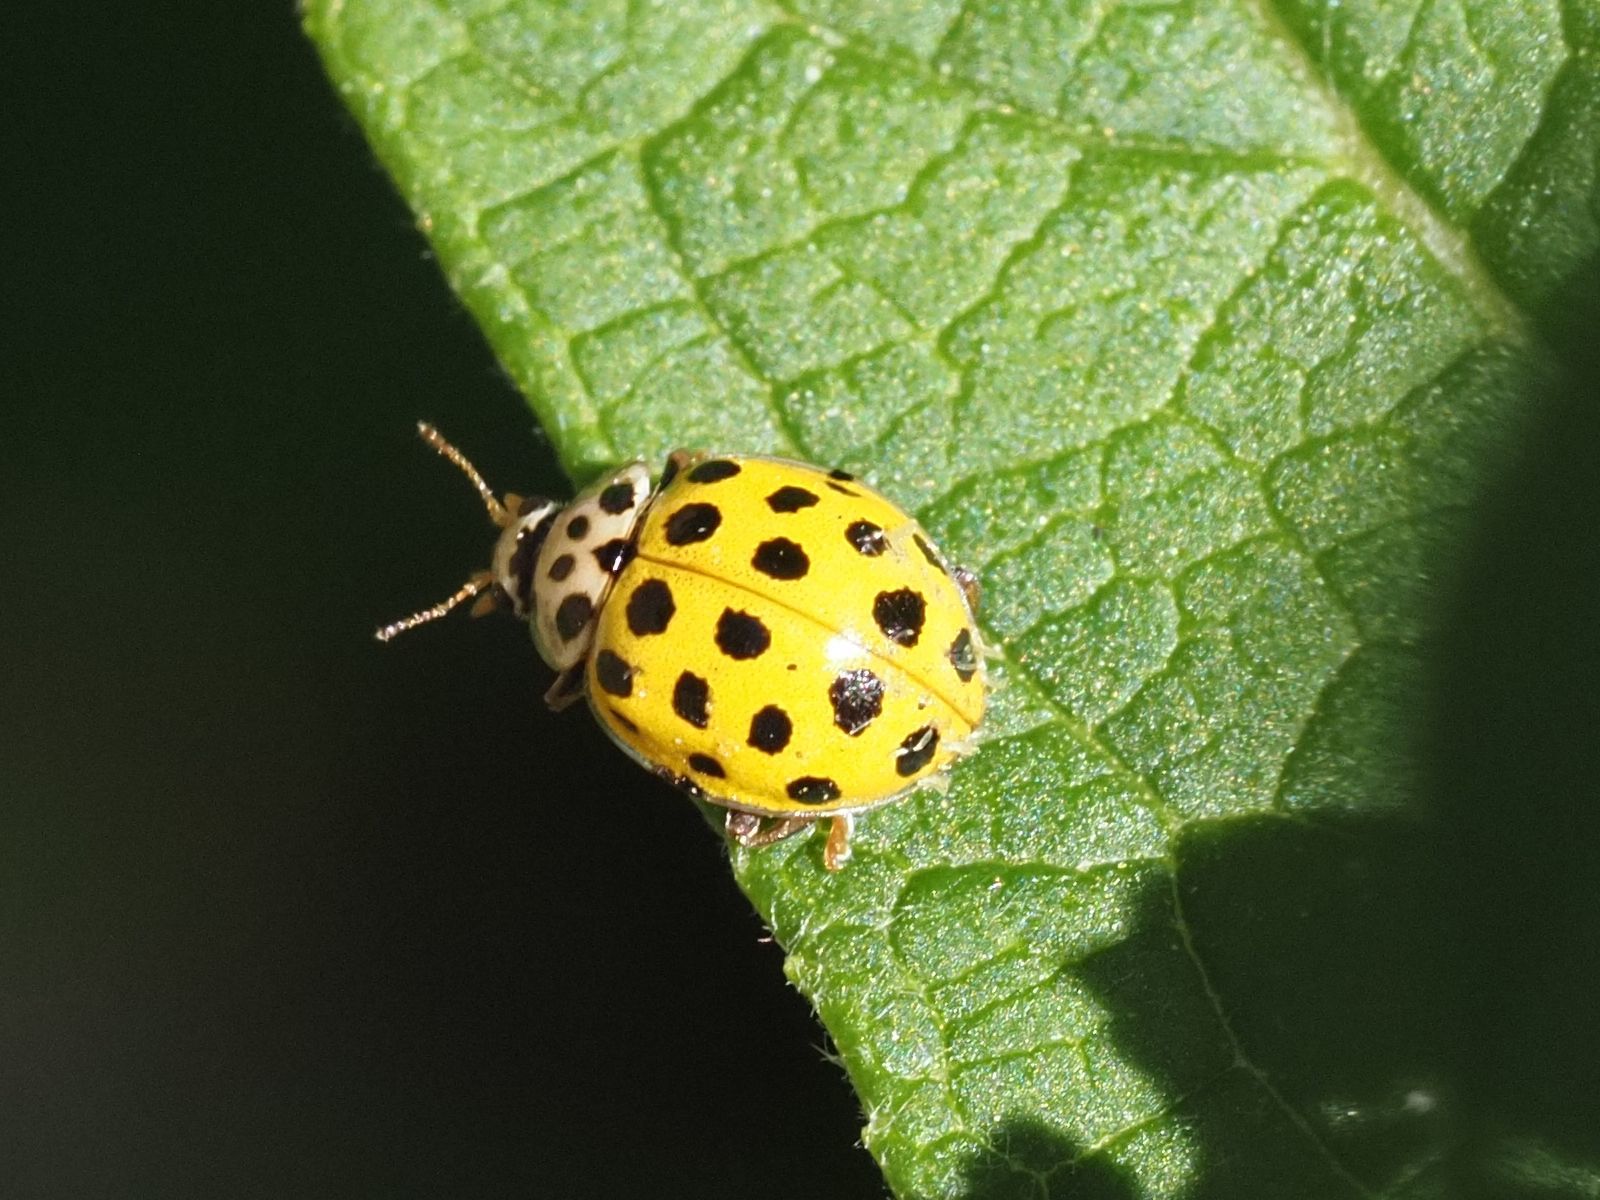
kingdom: Animalia
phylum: Arthropoda
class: Insecta
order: Coleoptera
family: Coccinellidae
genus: Psyllobora
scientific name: Psyllobora vigintiduopunctata
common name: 22-spot ladybird
